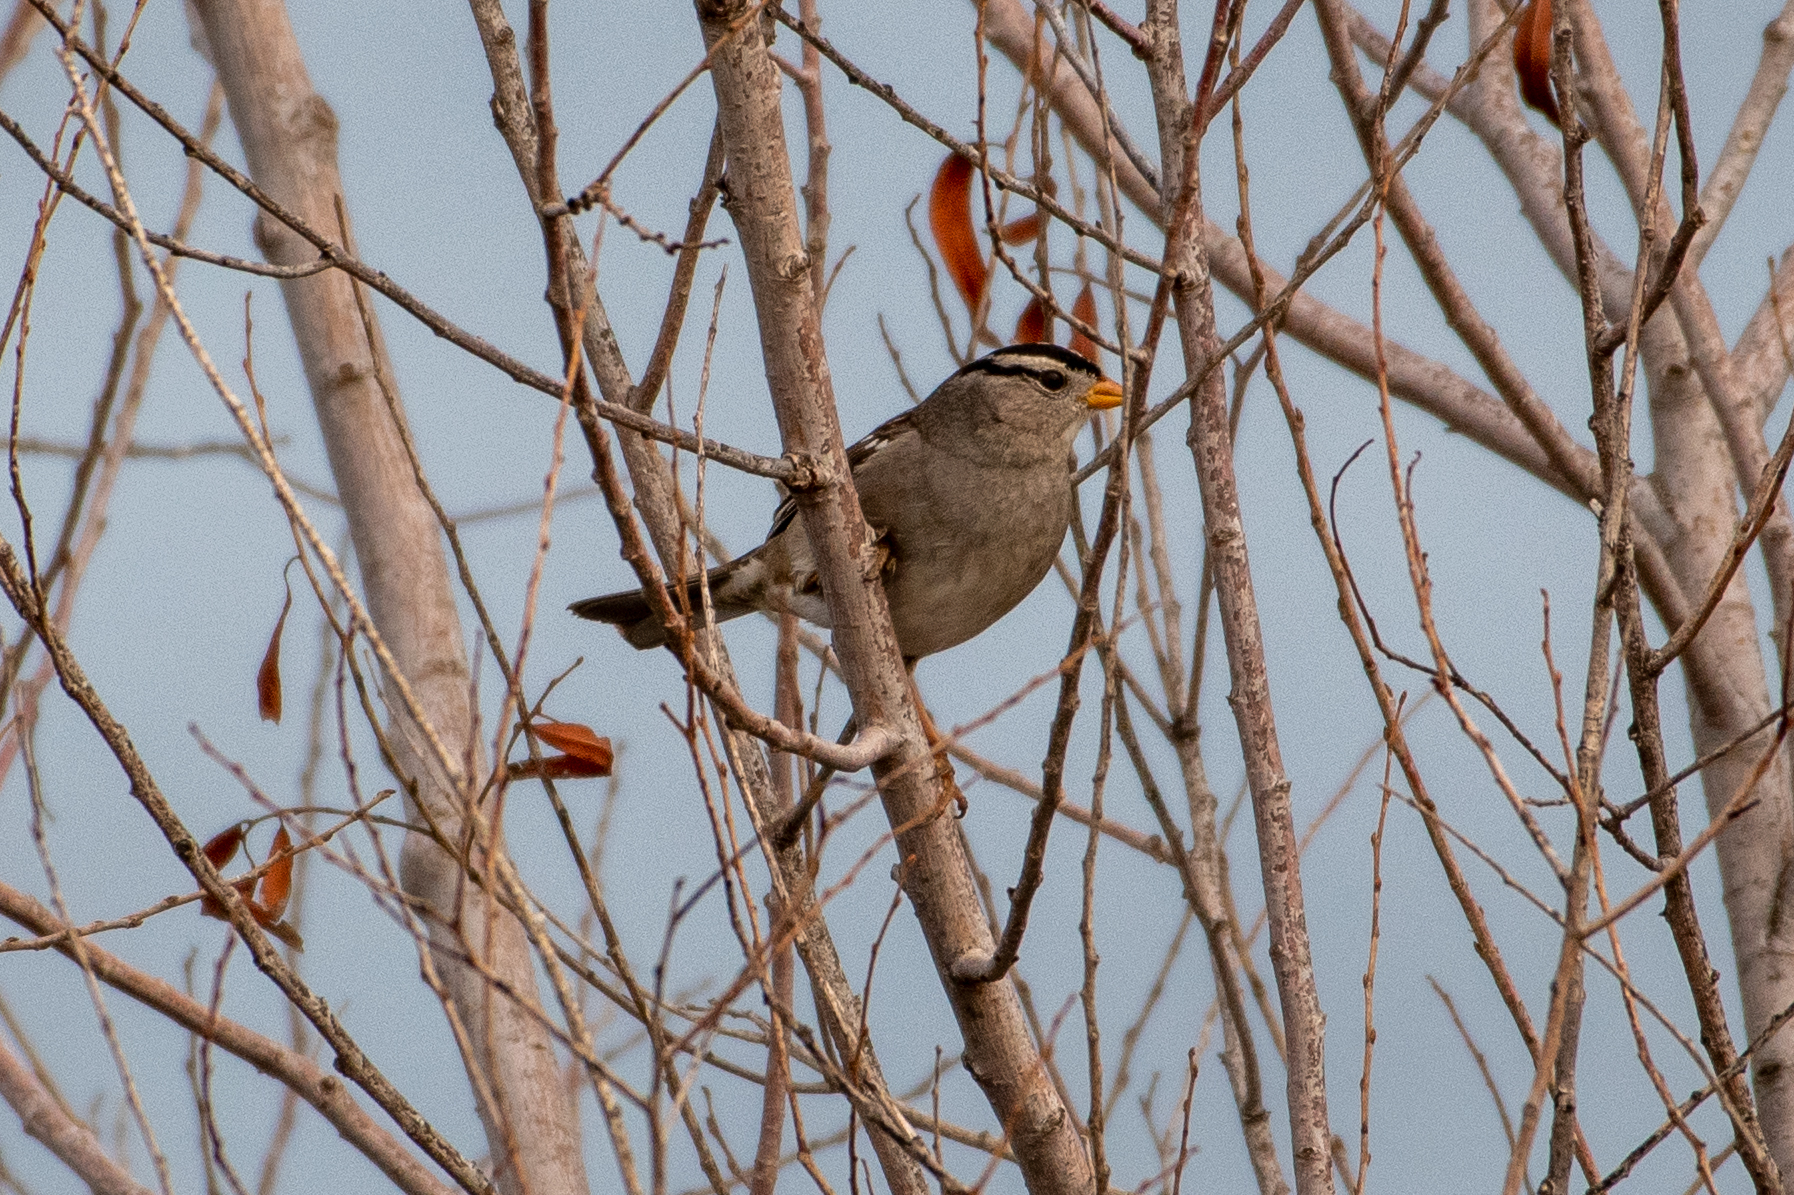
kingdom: Animalia
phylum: Chordata
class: Aves
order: Passeriformes
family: Passerellidae
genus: Zonotrichia
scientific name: Zonotrichia leucophrys
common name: White-crowned sparrow
